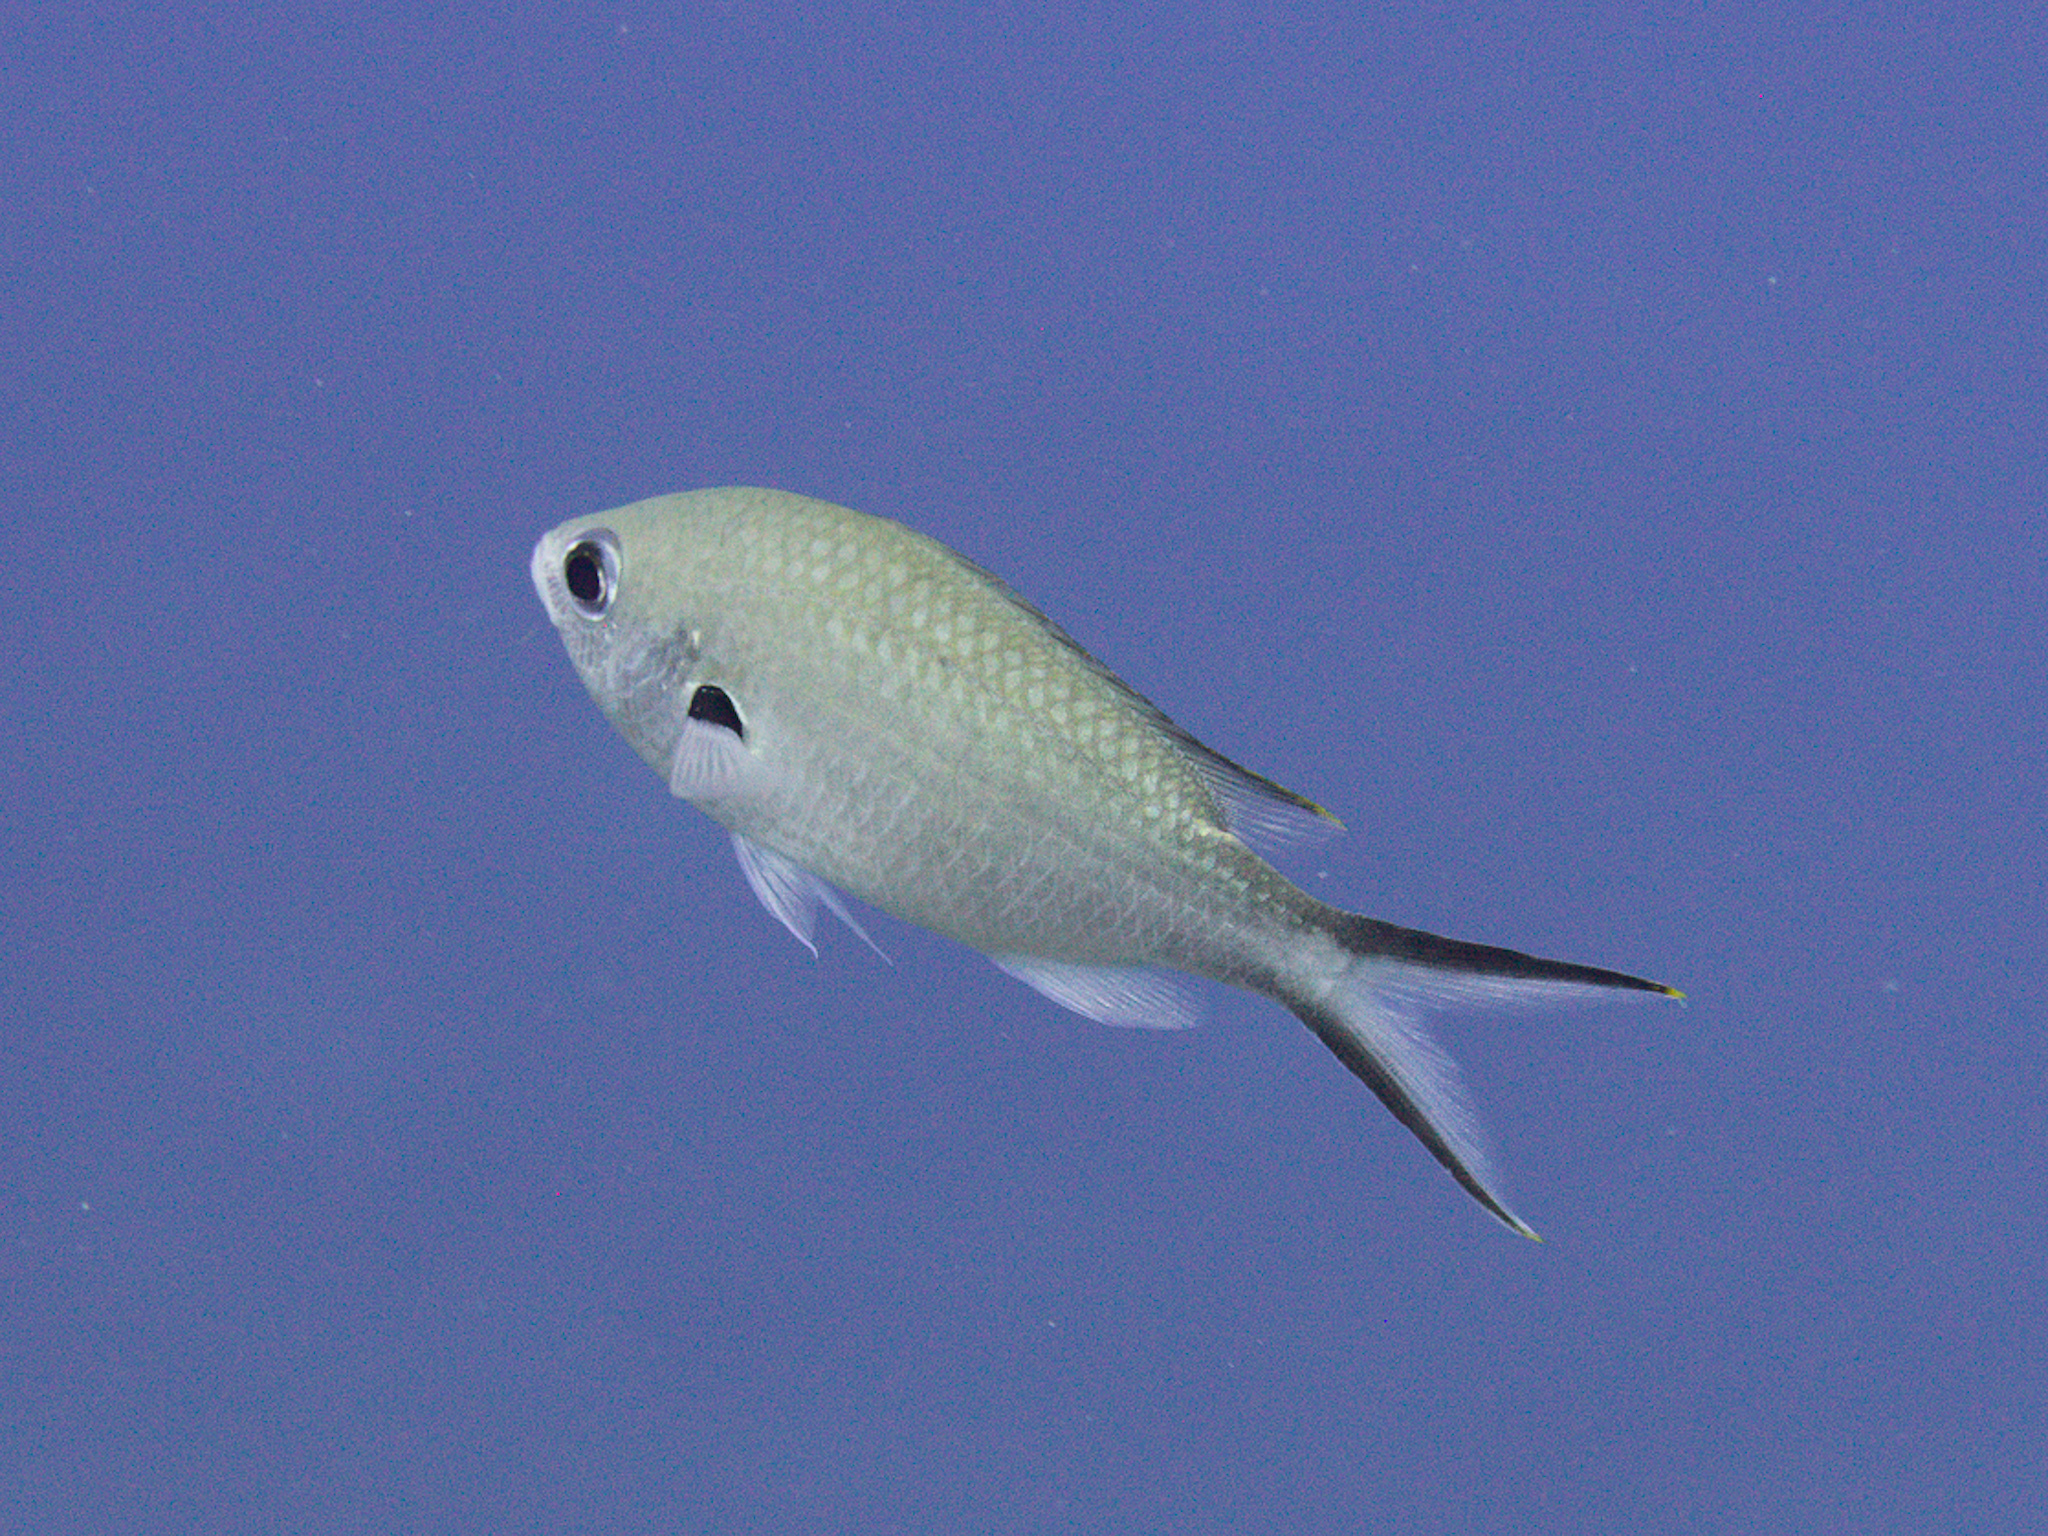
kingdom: Animalia
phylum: Chordata
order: Perciformes
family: Pomacentridae
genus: Chromis
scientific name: Chromis multilineata
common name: Brown chromis
